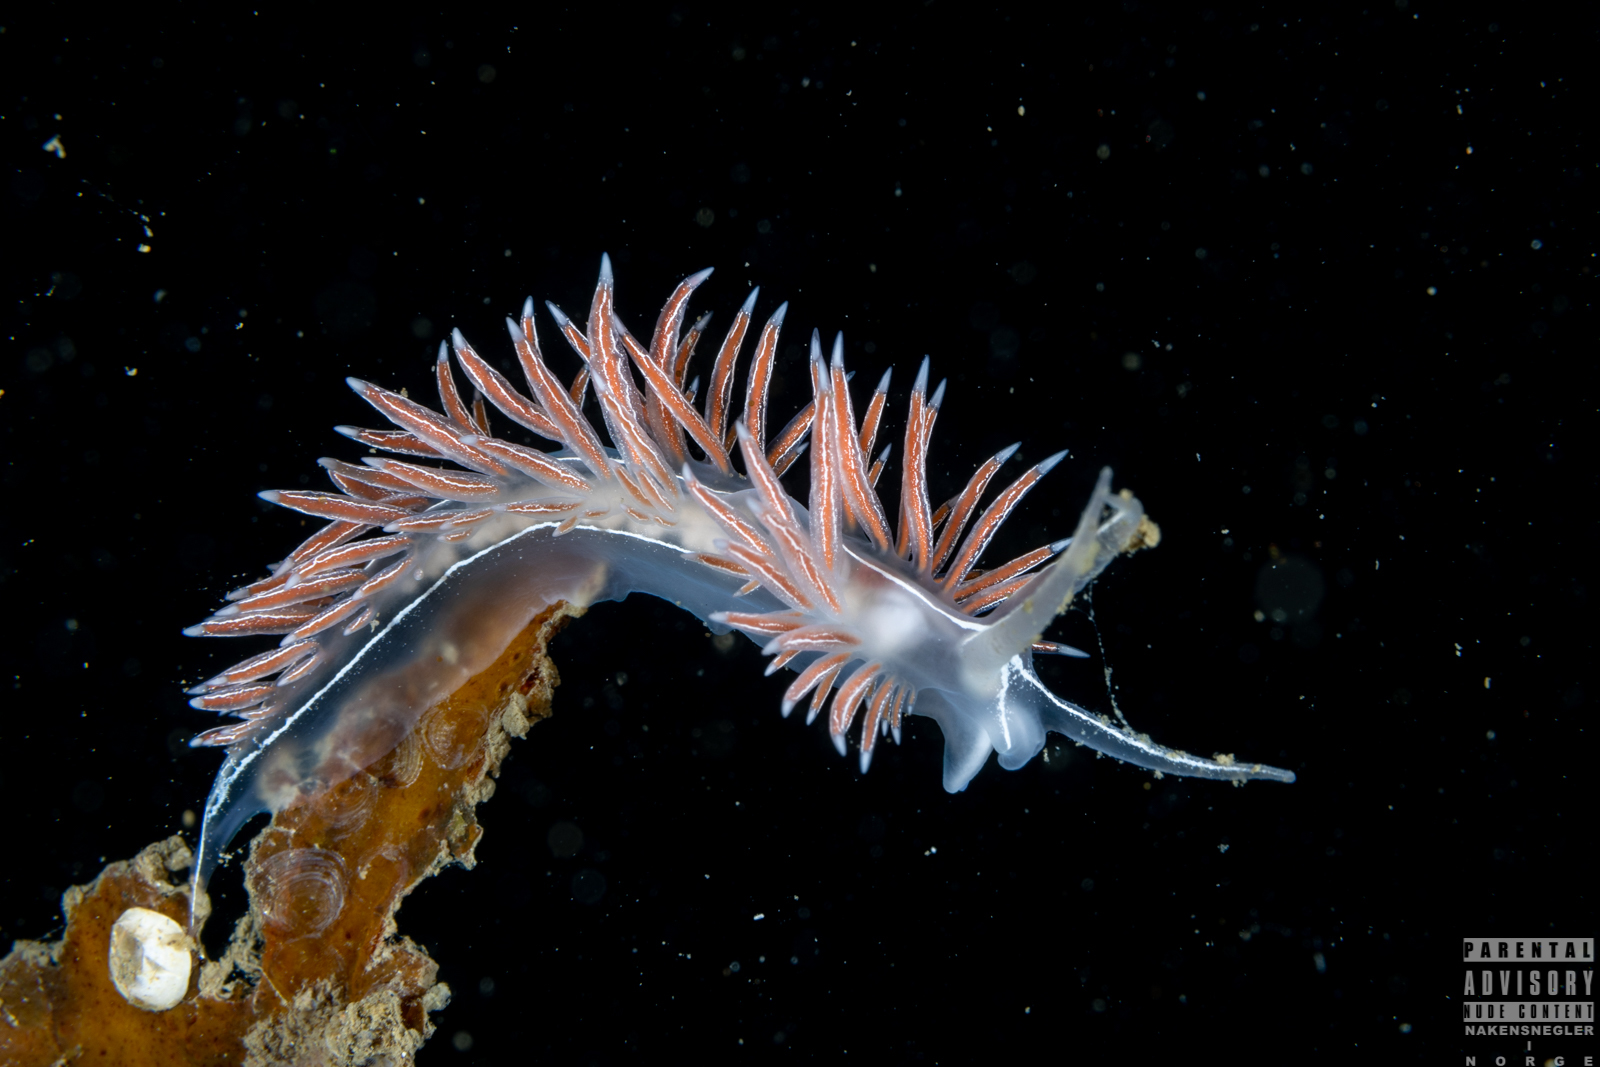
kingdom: Animalia
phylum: Mollusca
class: Gastropoda
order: Nudibranchia
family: Coryphellidae
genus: Coryphella
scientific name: Coryphella chriskaugei
